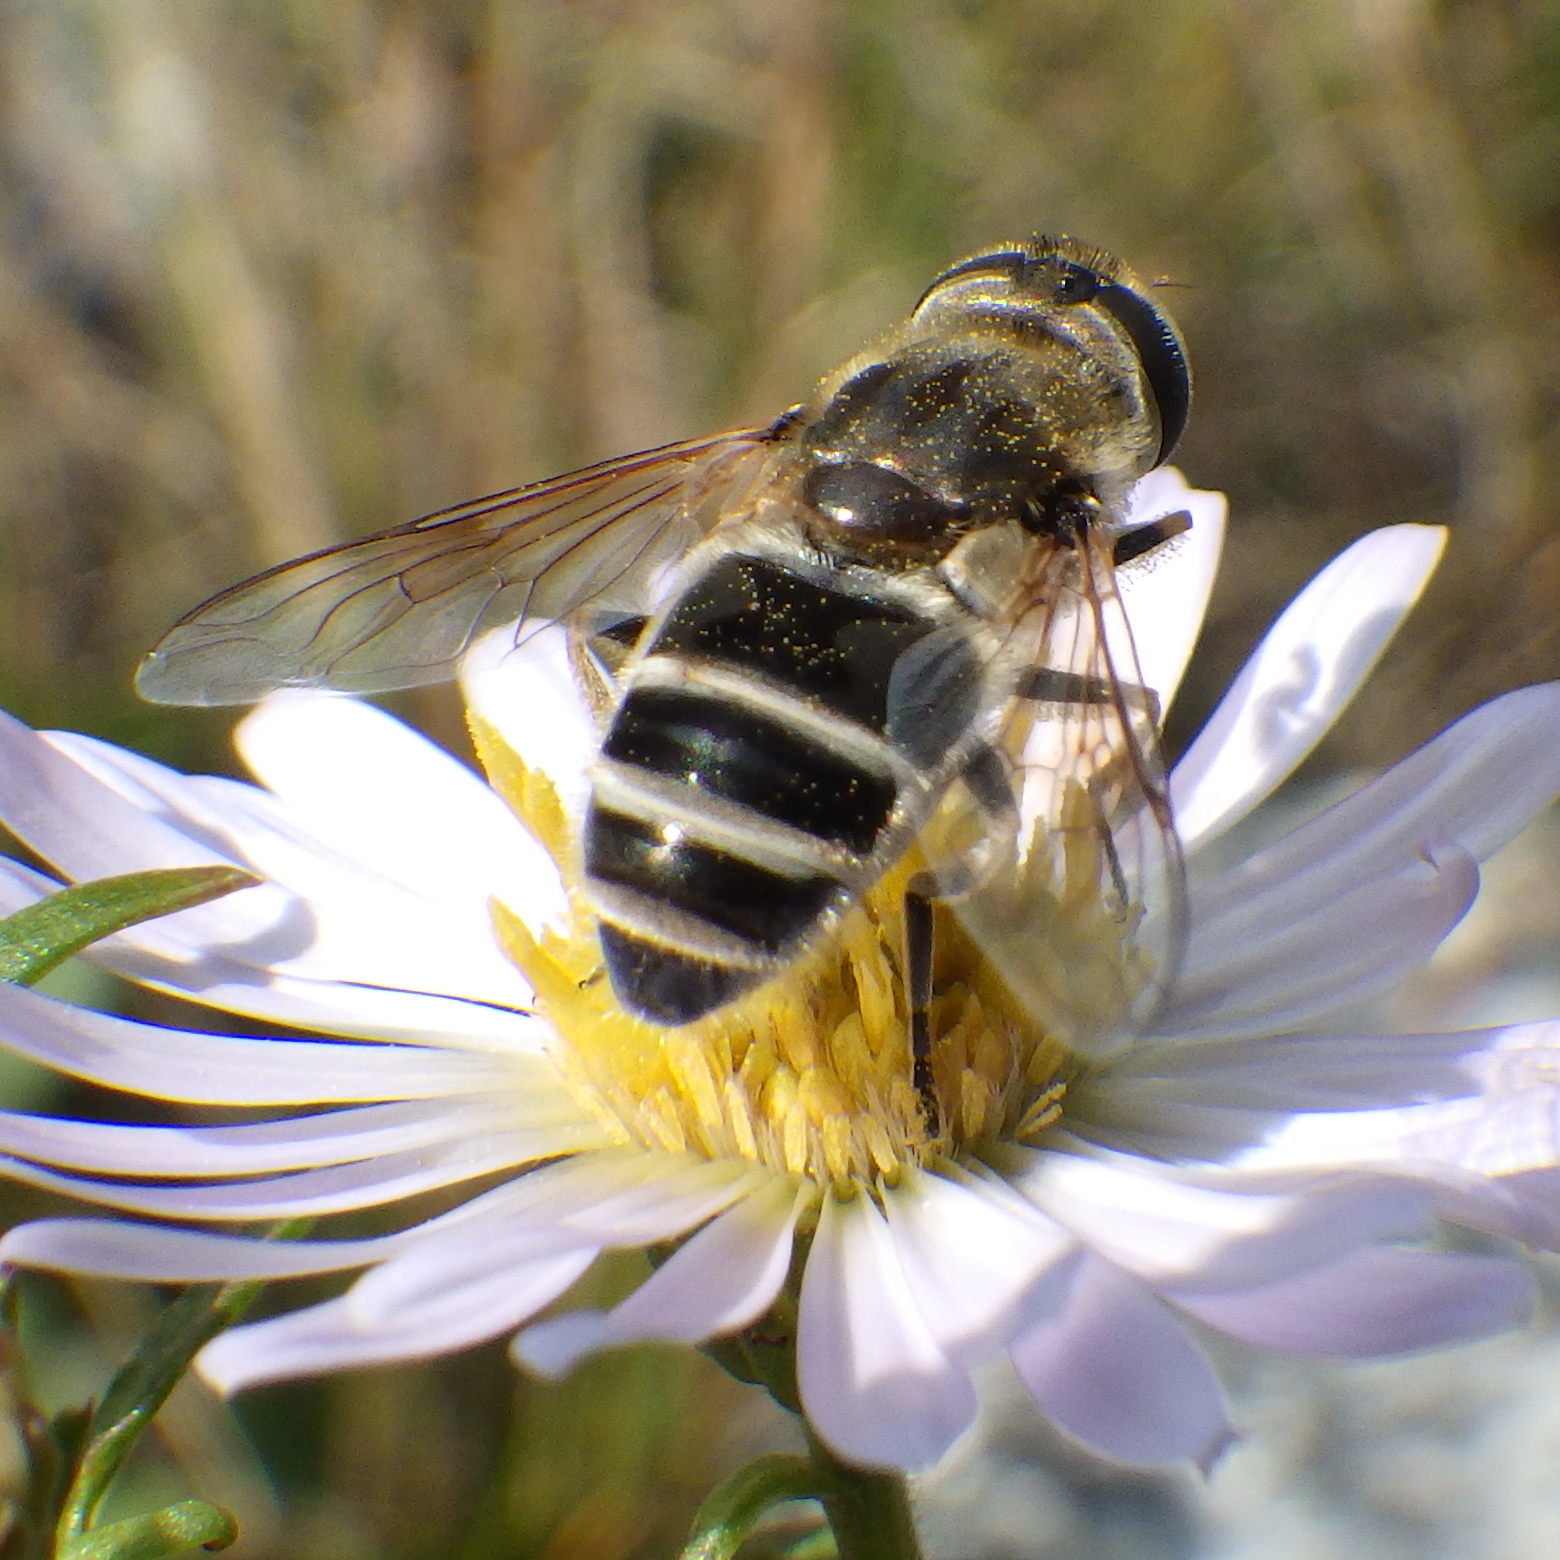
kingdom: Animalia
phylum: Arthropoda
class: Insecta
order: Diptera
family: Syrphidae
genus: Eristalis
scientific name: Eristalis arbustorum
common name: Hover fly
